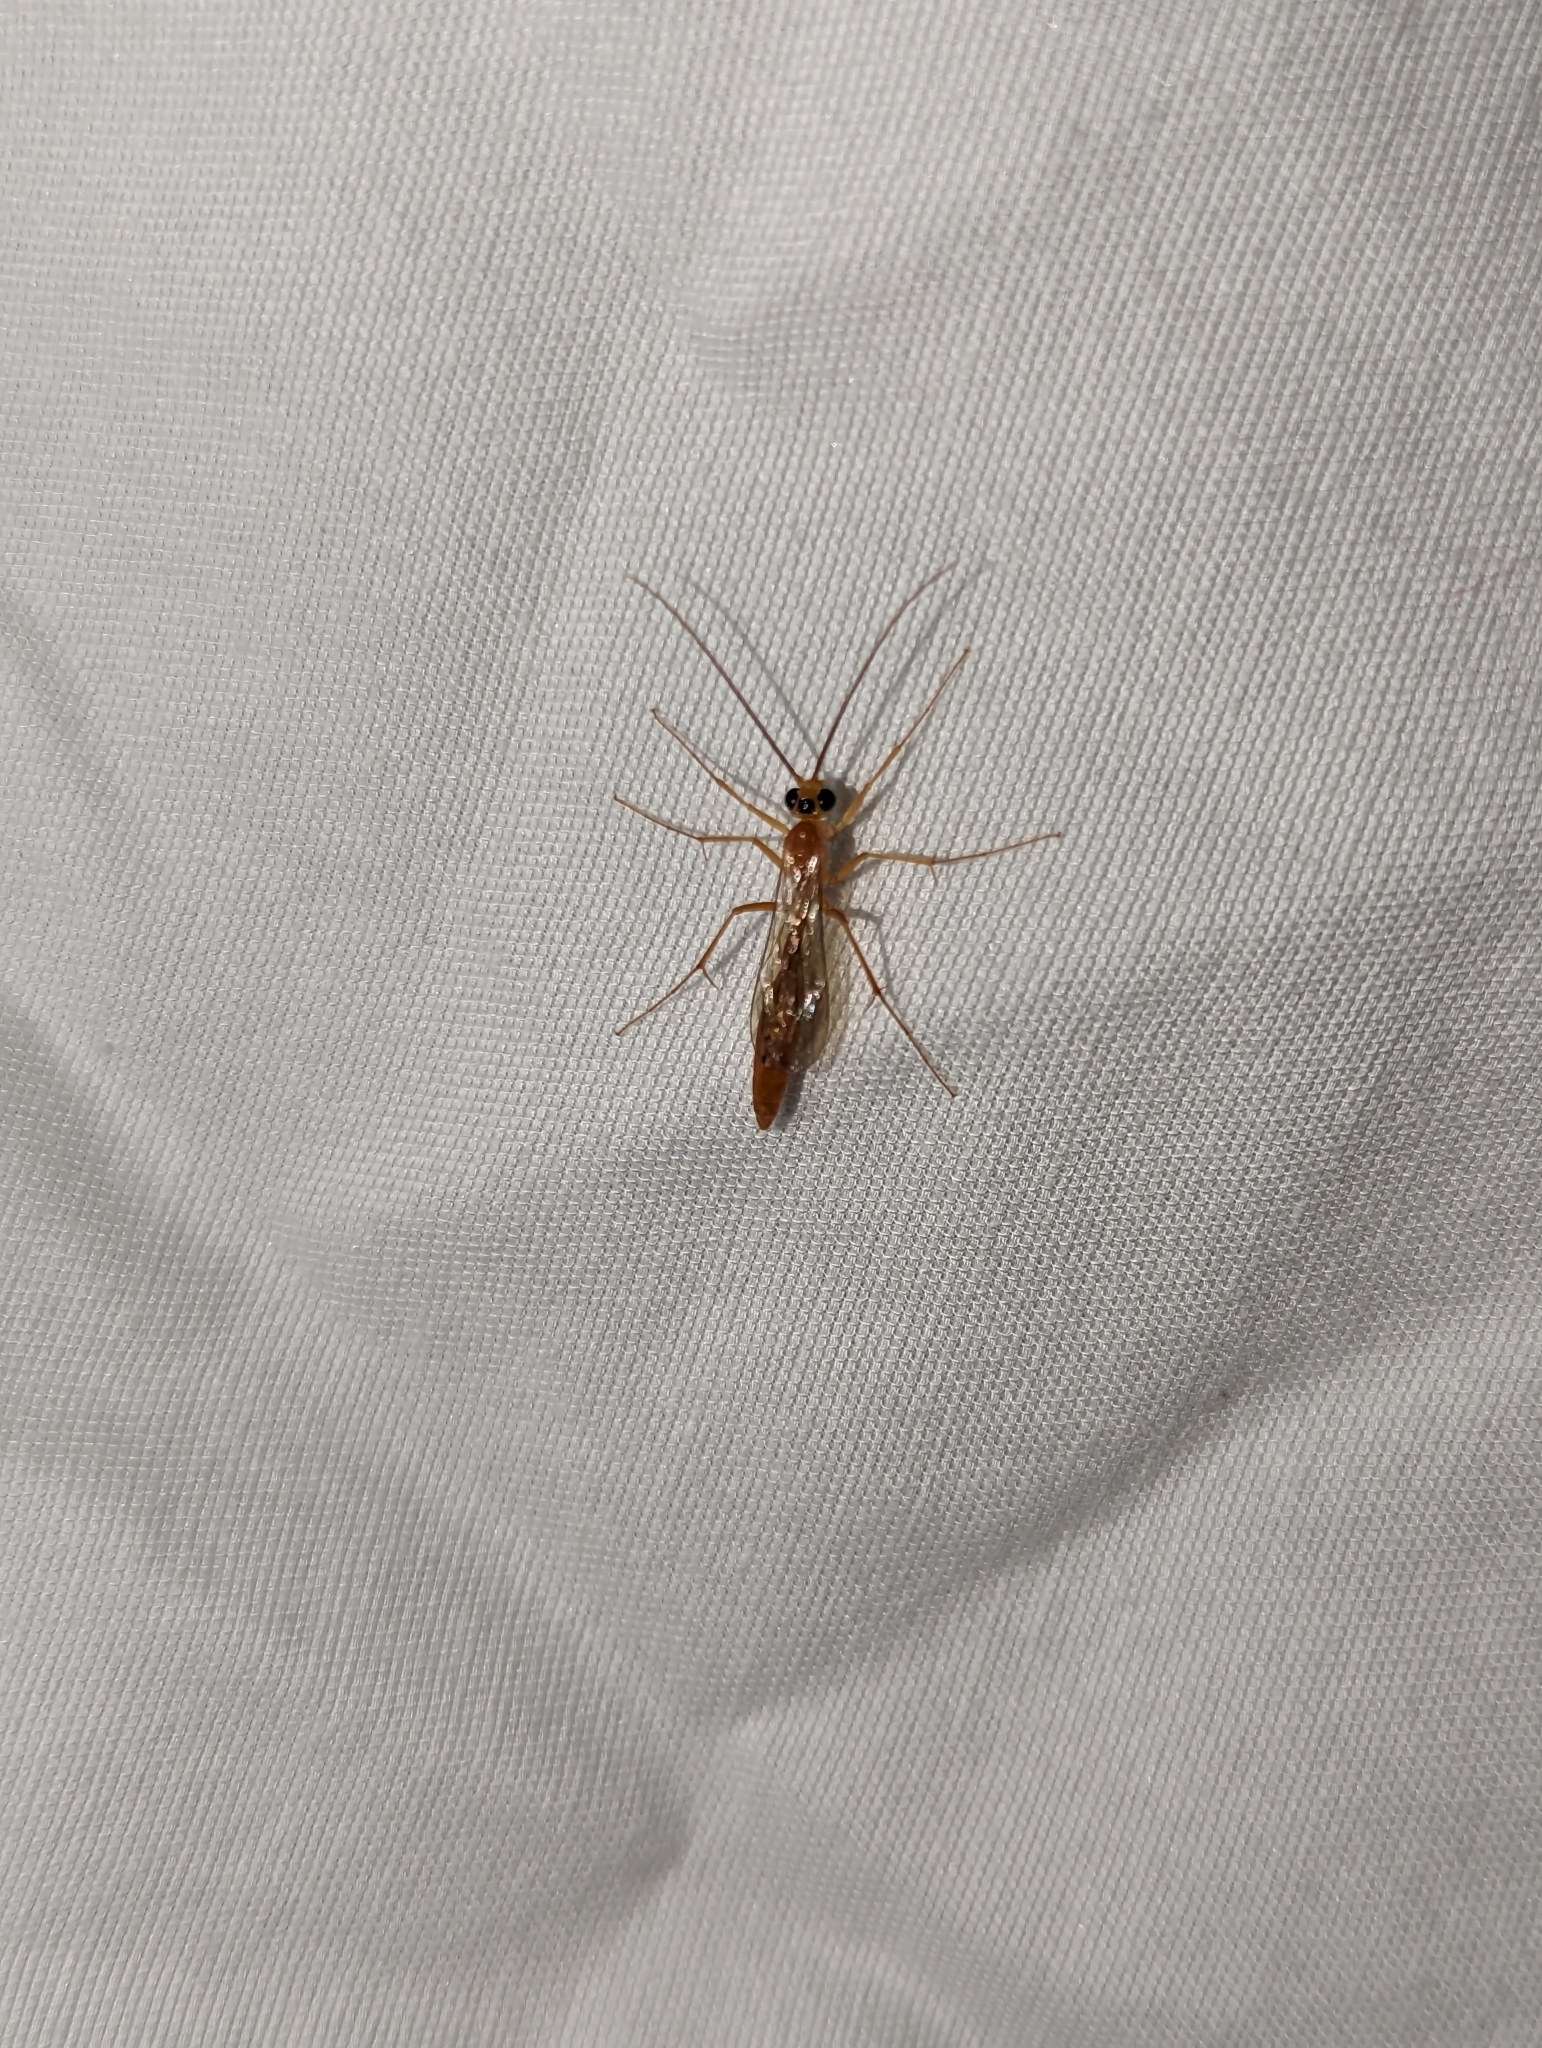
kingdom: Animalia
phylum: Arthropoda
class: Insecta
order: Hymenoptera
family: Rhopalosomatidae
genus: Rhopalosoma
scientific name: Rhopalosoma nearcticum
